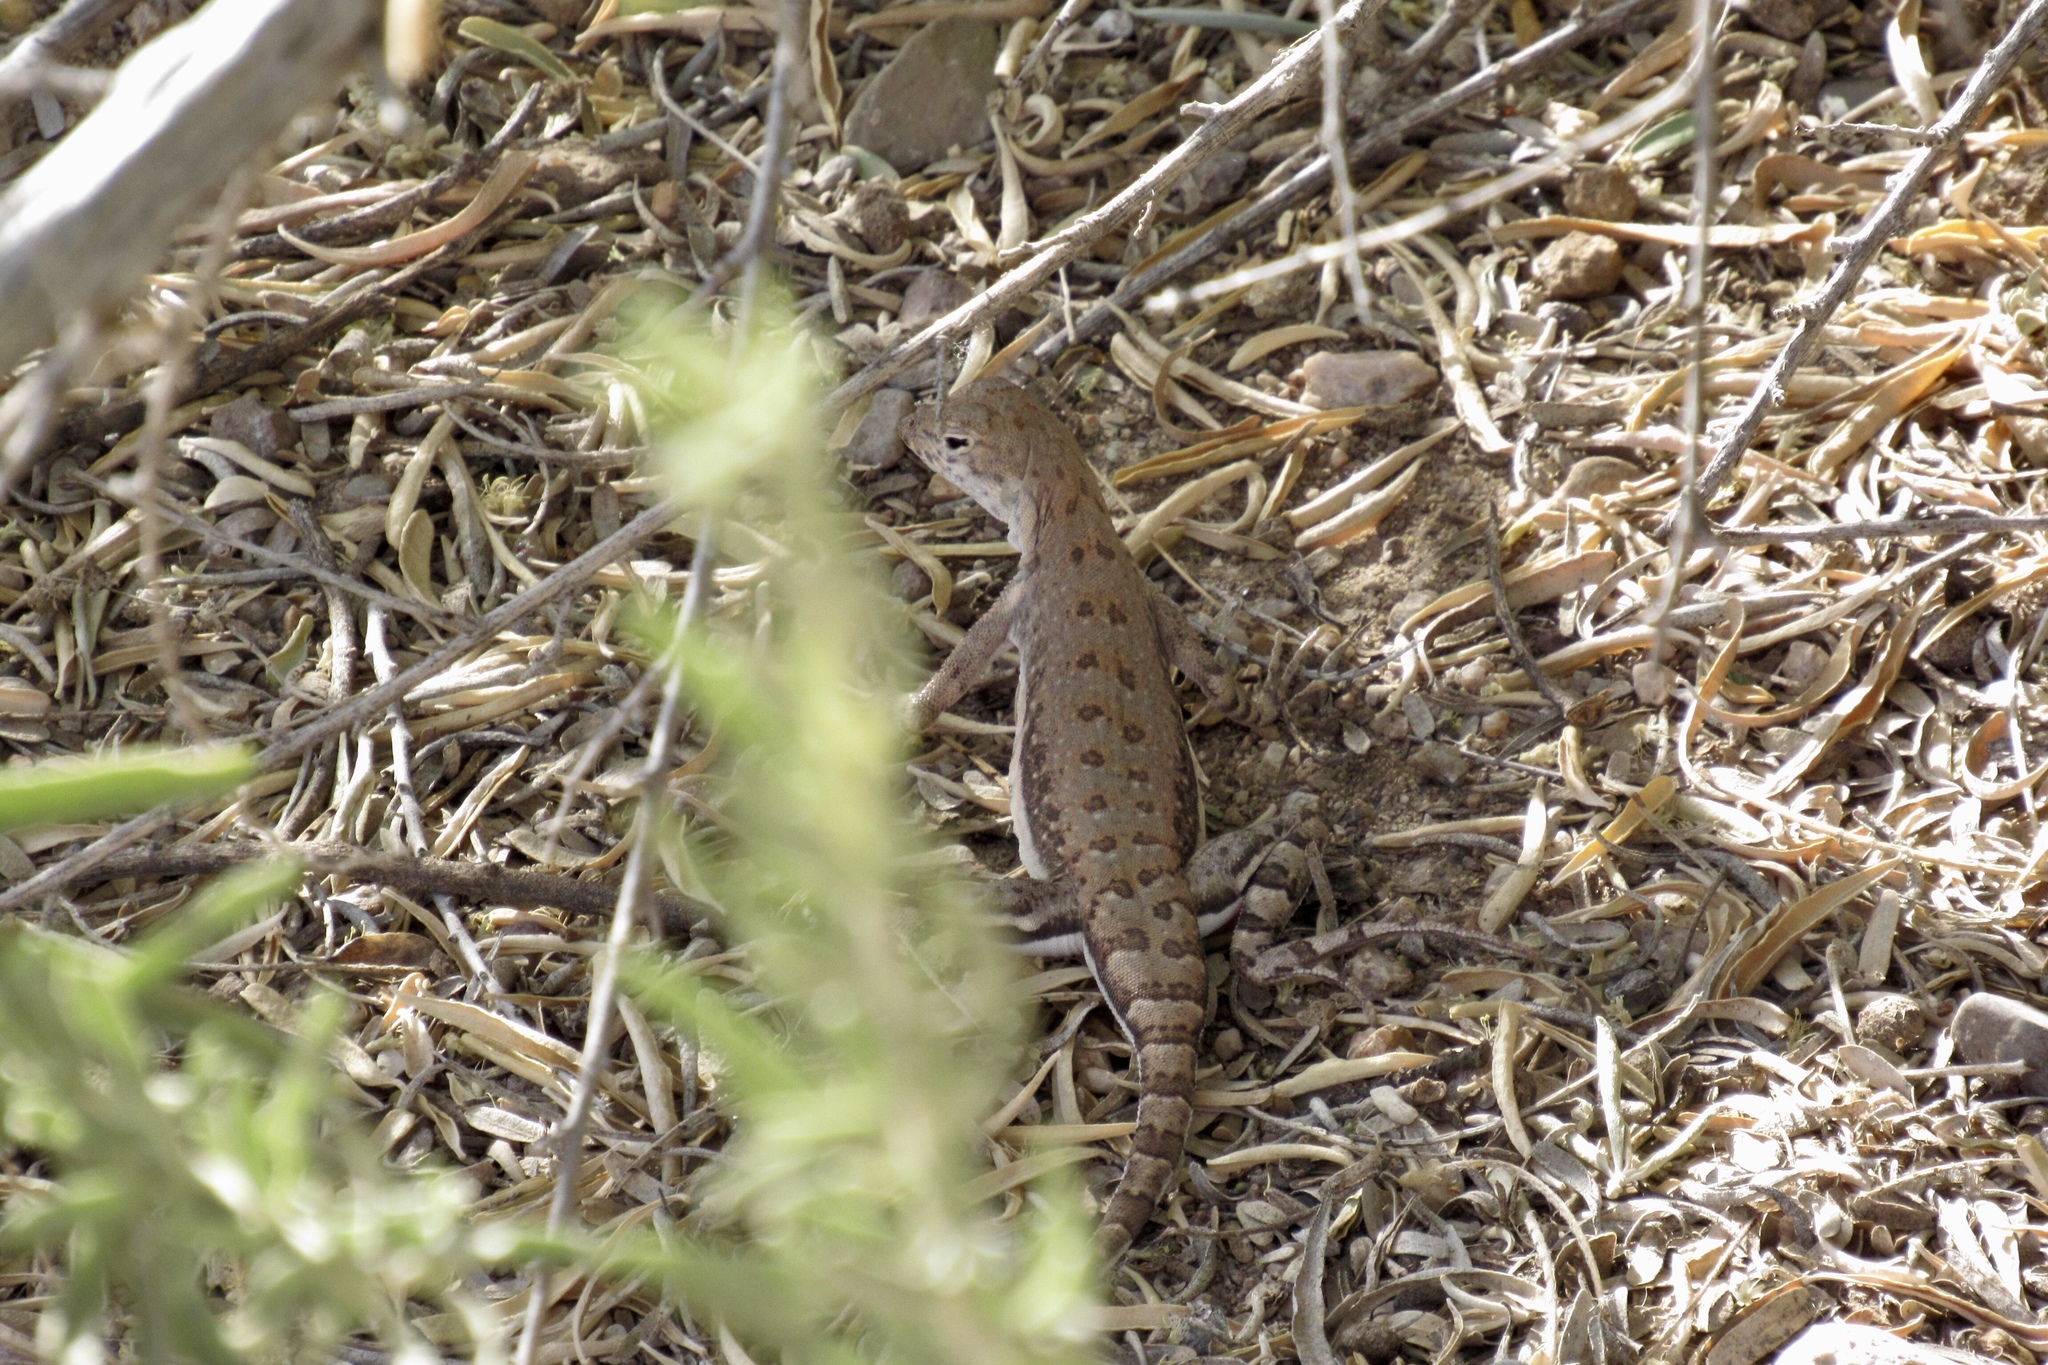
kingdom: Animalia
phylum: Chordata
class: Squamata
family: Phrynosomatidae
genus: Callisaurus
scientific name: Callisaurus draconoides
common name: Zebra-tailed lizard
